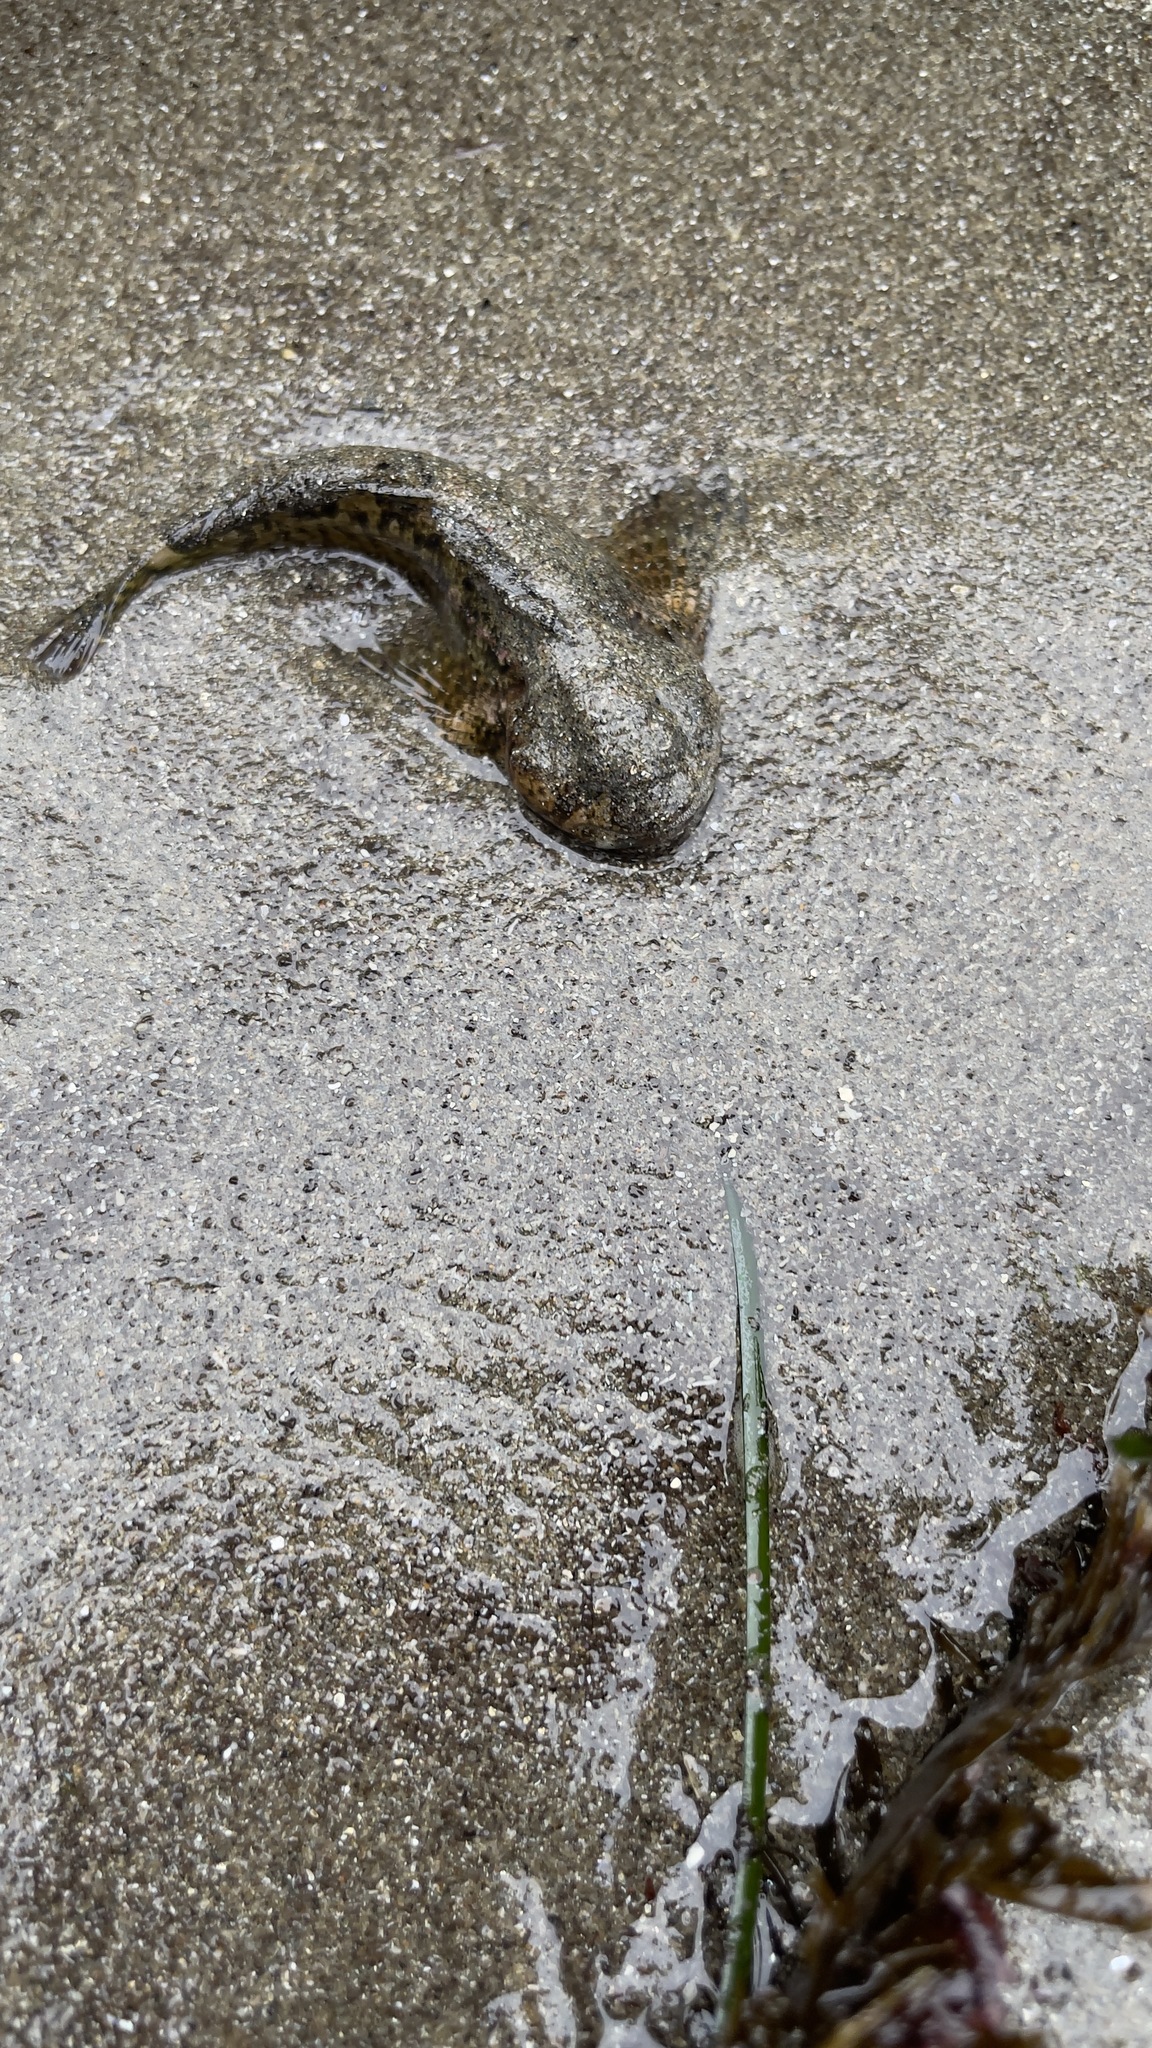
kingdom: Animalia
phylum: Chordata
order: Scorpaeniformes
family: Cottidae
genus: Clinocottus
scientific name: Clinocottus recalvus
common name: Bald sculpin
